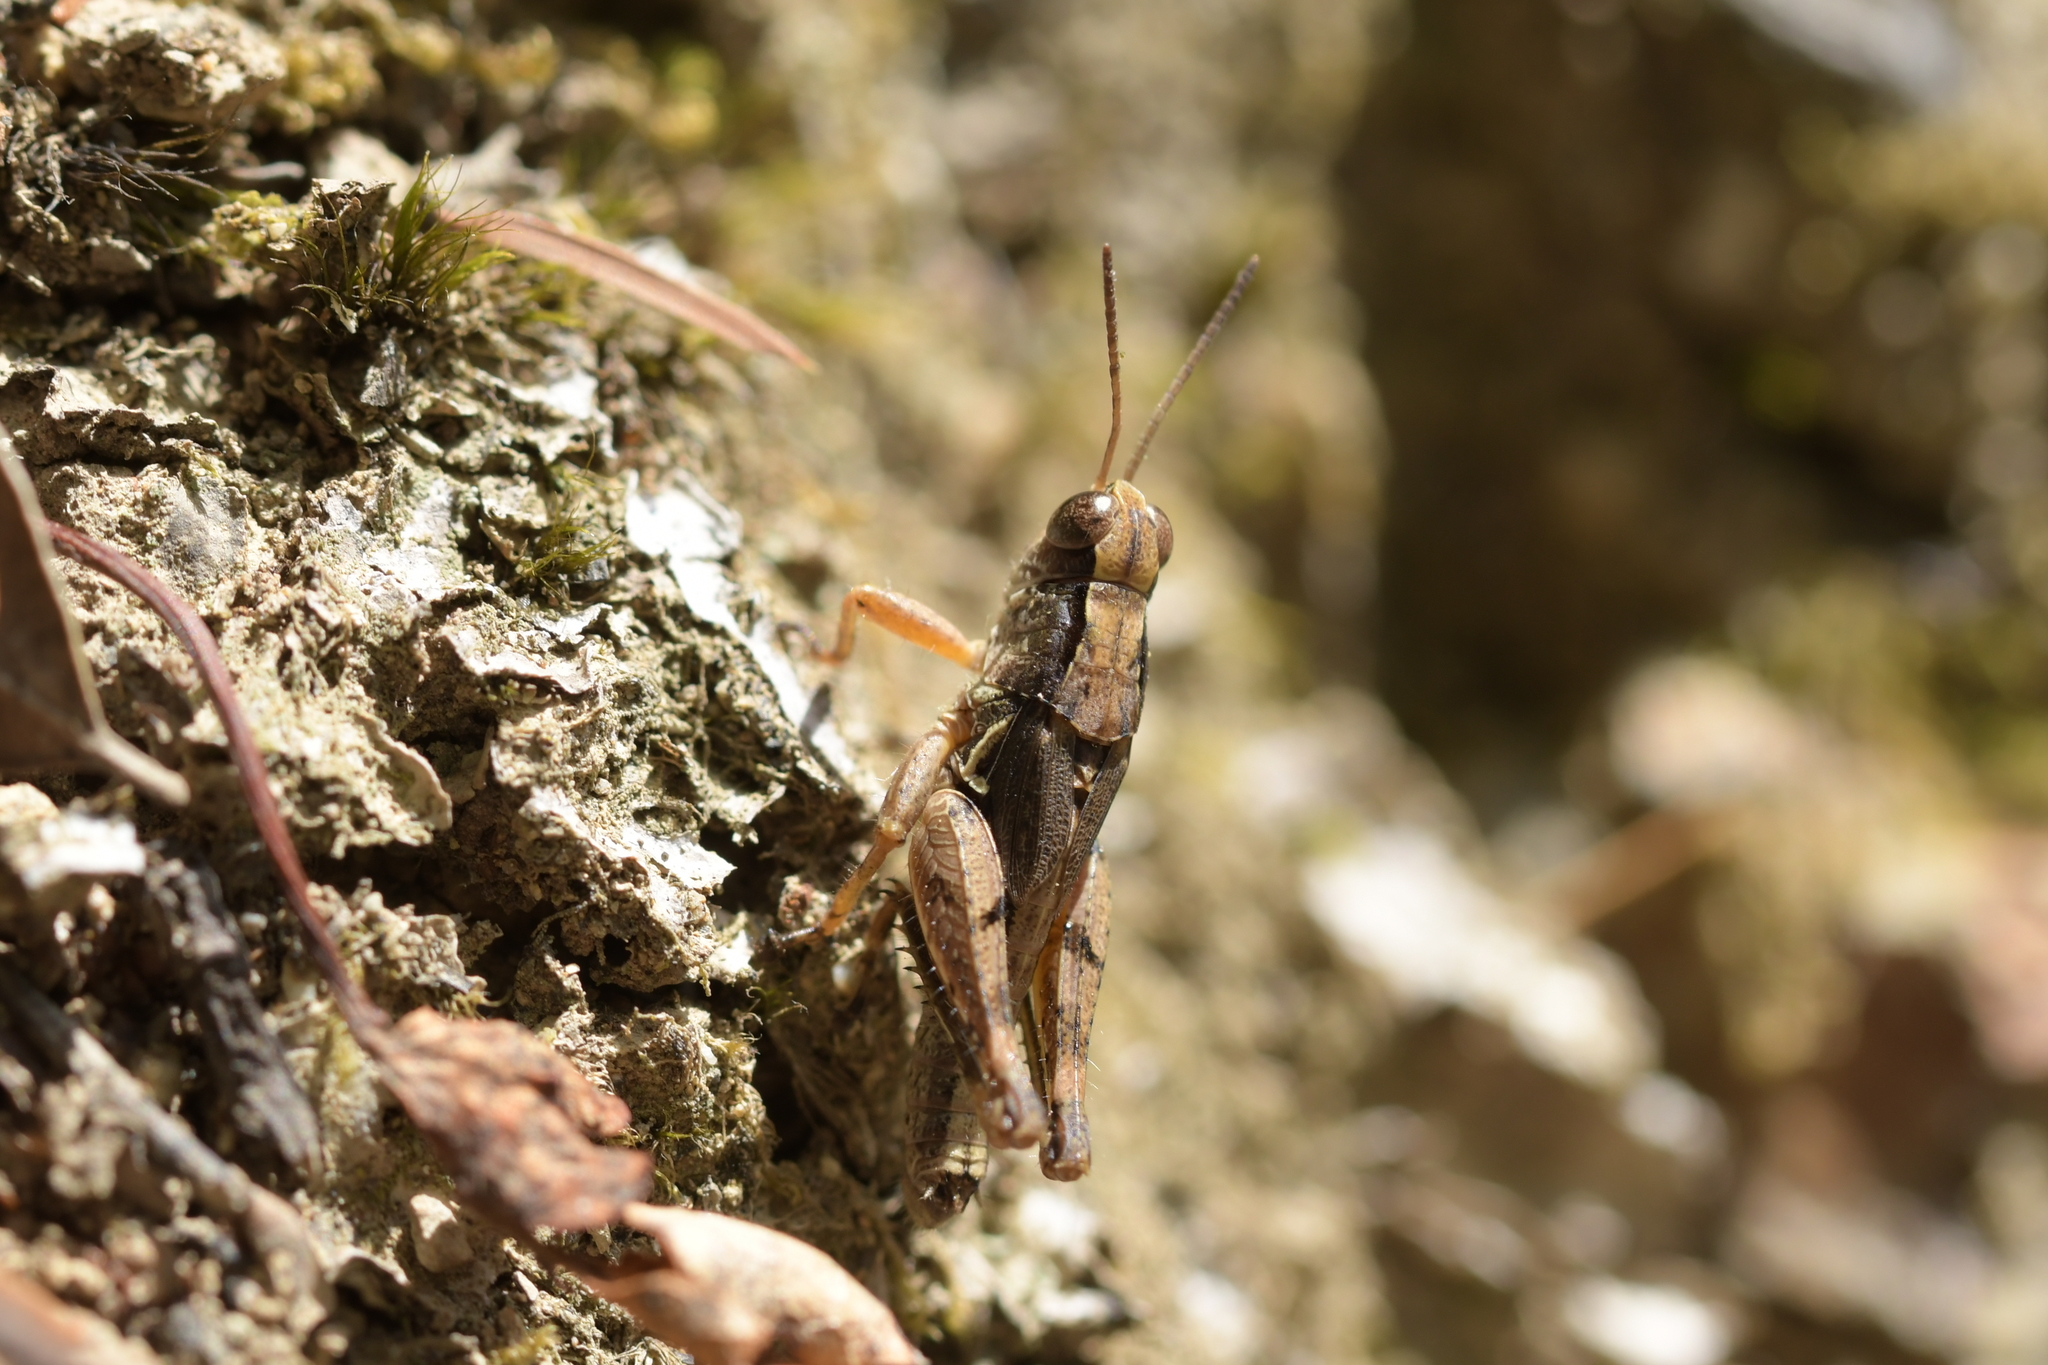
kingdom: Animalia
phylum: Arthropoda
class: Insecta
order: Orthoptera
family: Acrididae
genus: Phaulacridium
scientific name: Phaulacridium marginale
